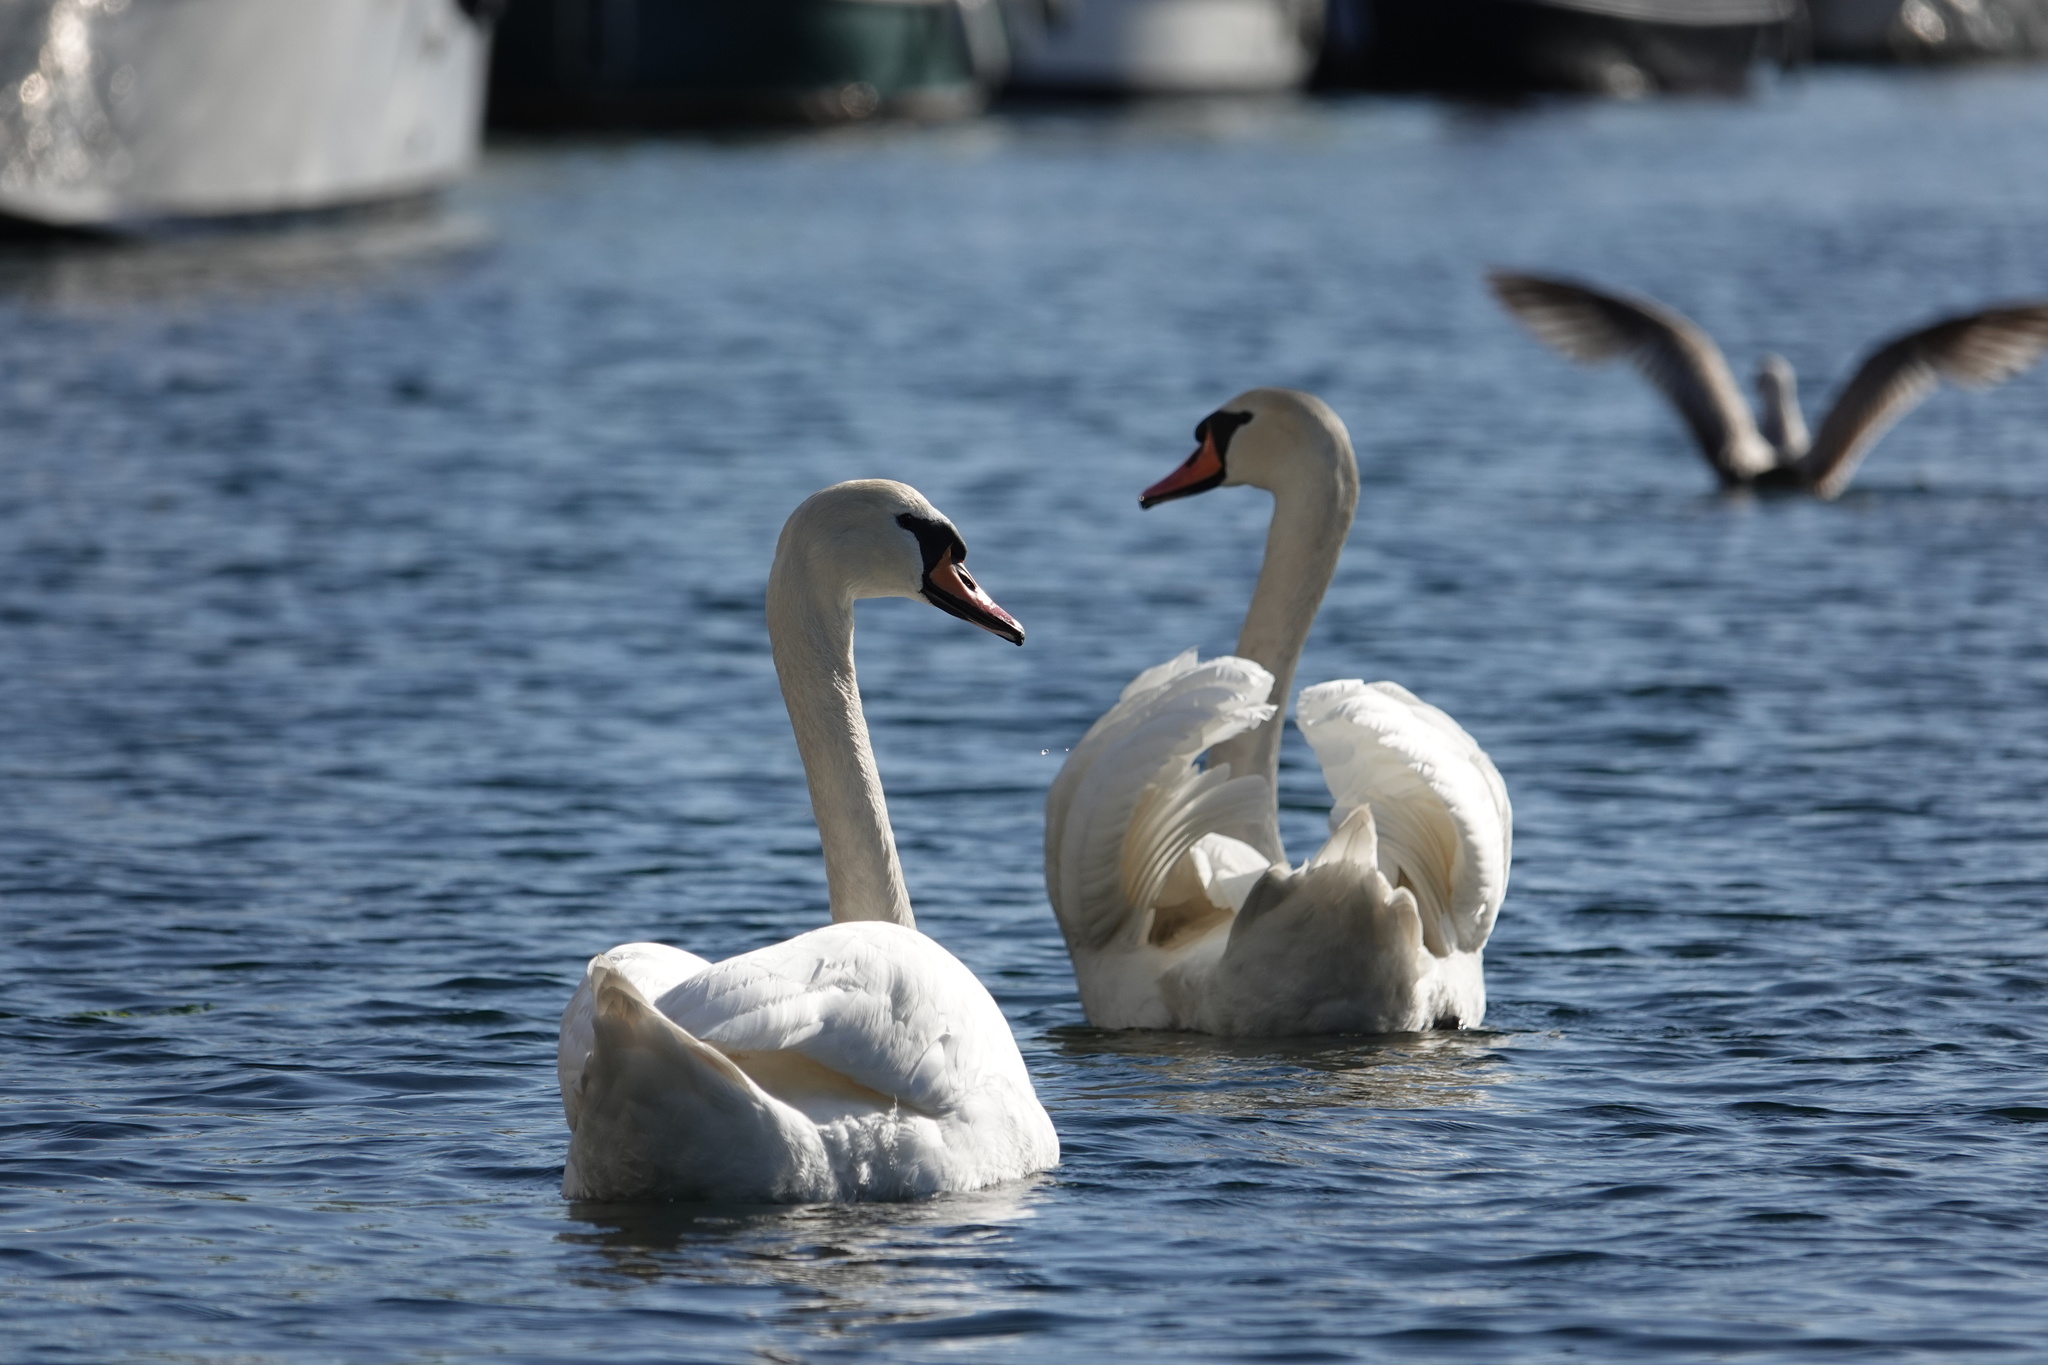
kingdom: Animalia
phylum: Chordata
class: Aves
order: Anseriformes
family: Anatidae
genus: Cygnus
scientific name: Cygnus olor
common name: Mute swan
